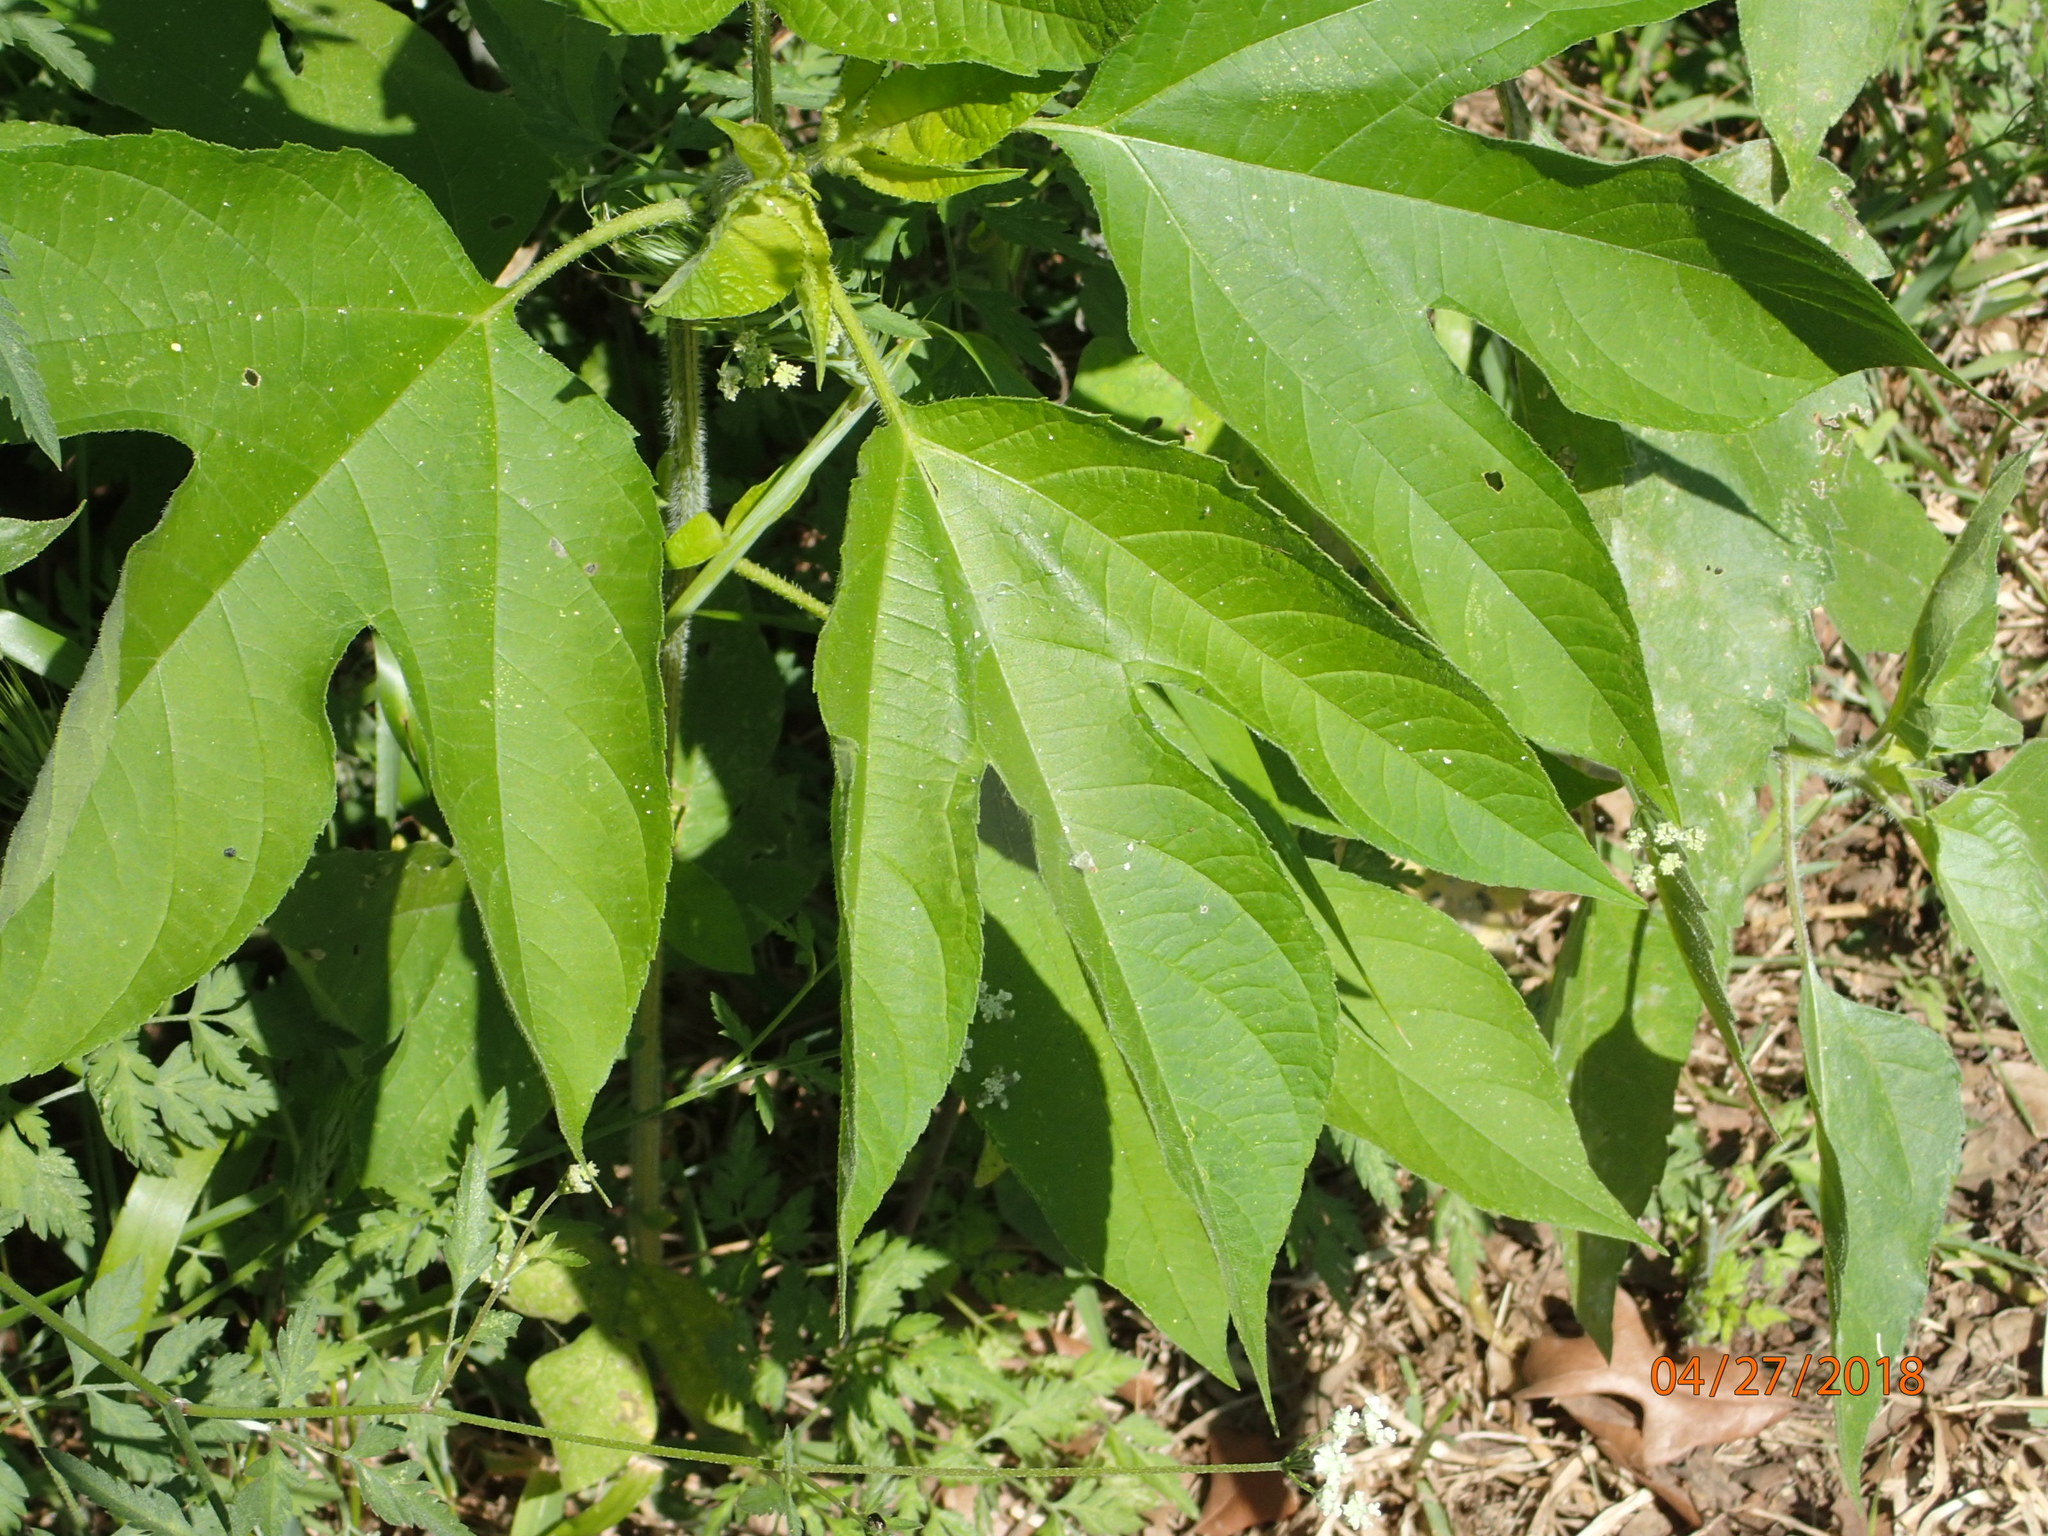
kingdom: Plantae
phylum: Tracheophyta
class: Magnoliopsida
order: Asterales
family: Asteraceae
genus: Ambrosia
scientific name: Ambrosia trifida
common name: Giant ragweed
